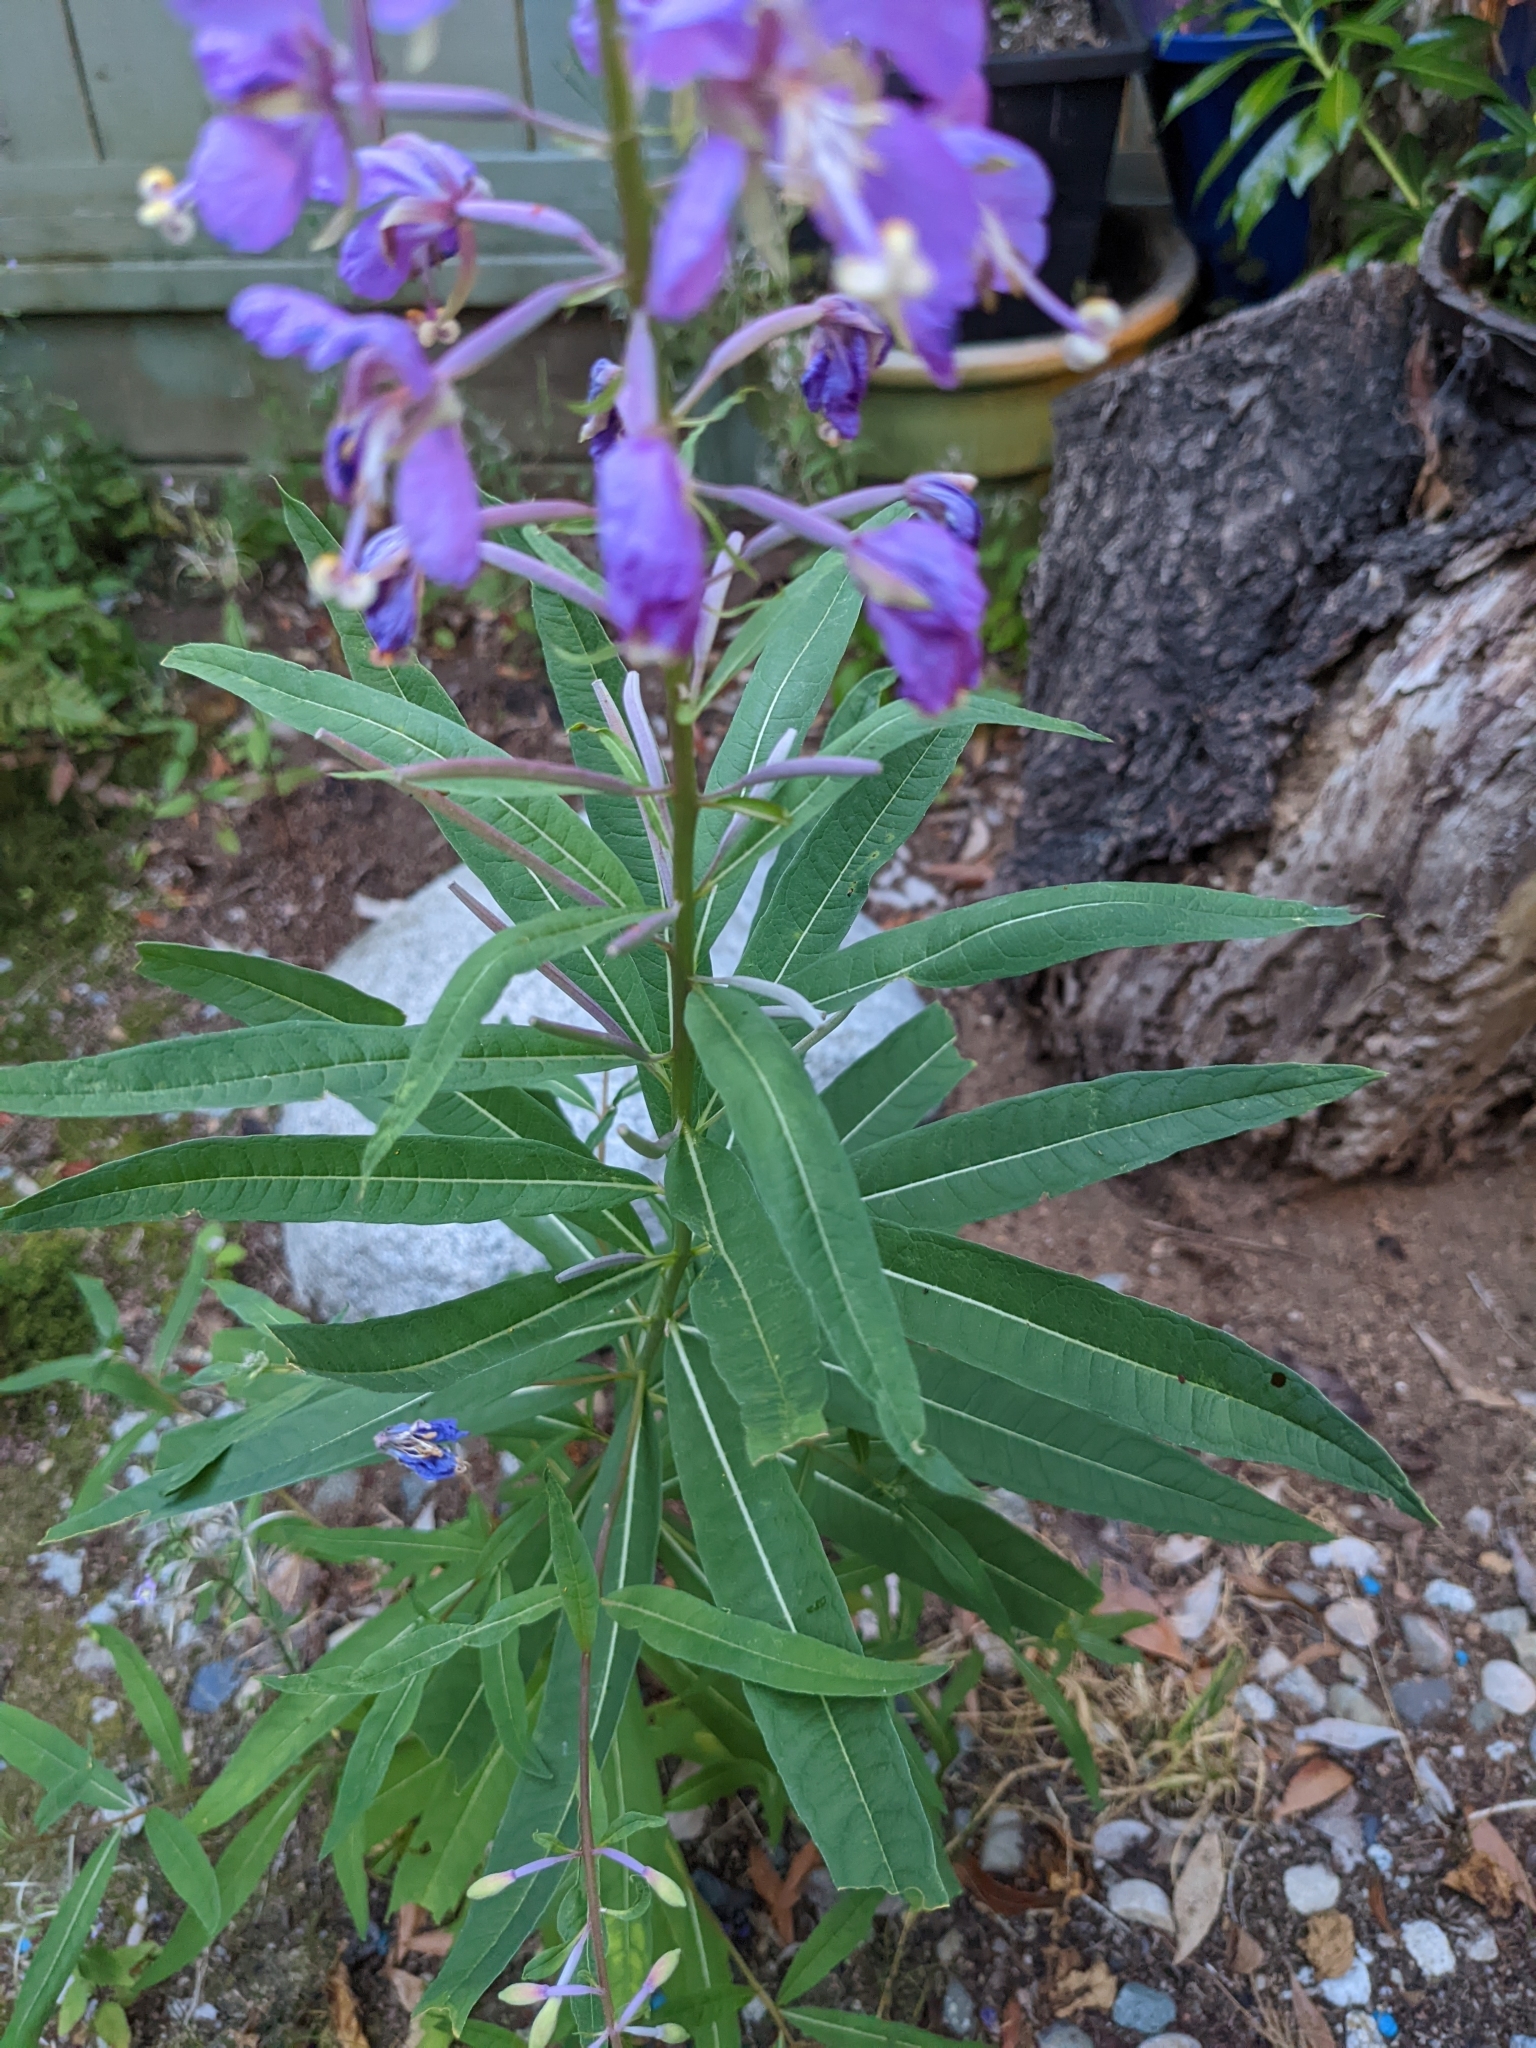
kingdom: Plantae
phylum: Tracheophyta
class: Magnoliopsida
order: Myrtales
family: Onagraceae
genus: Chamaenerion
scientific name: Chamaenerion angustifolium
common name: Fireweed
